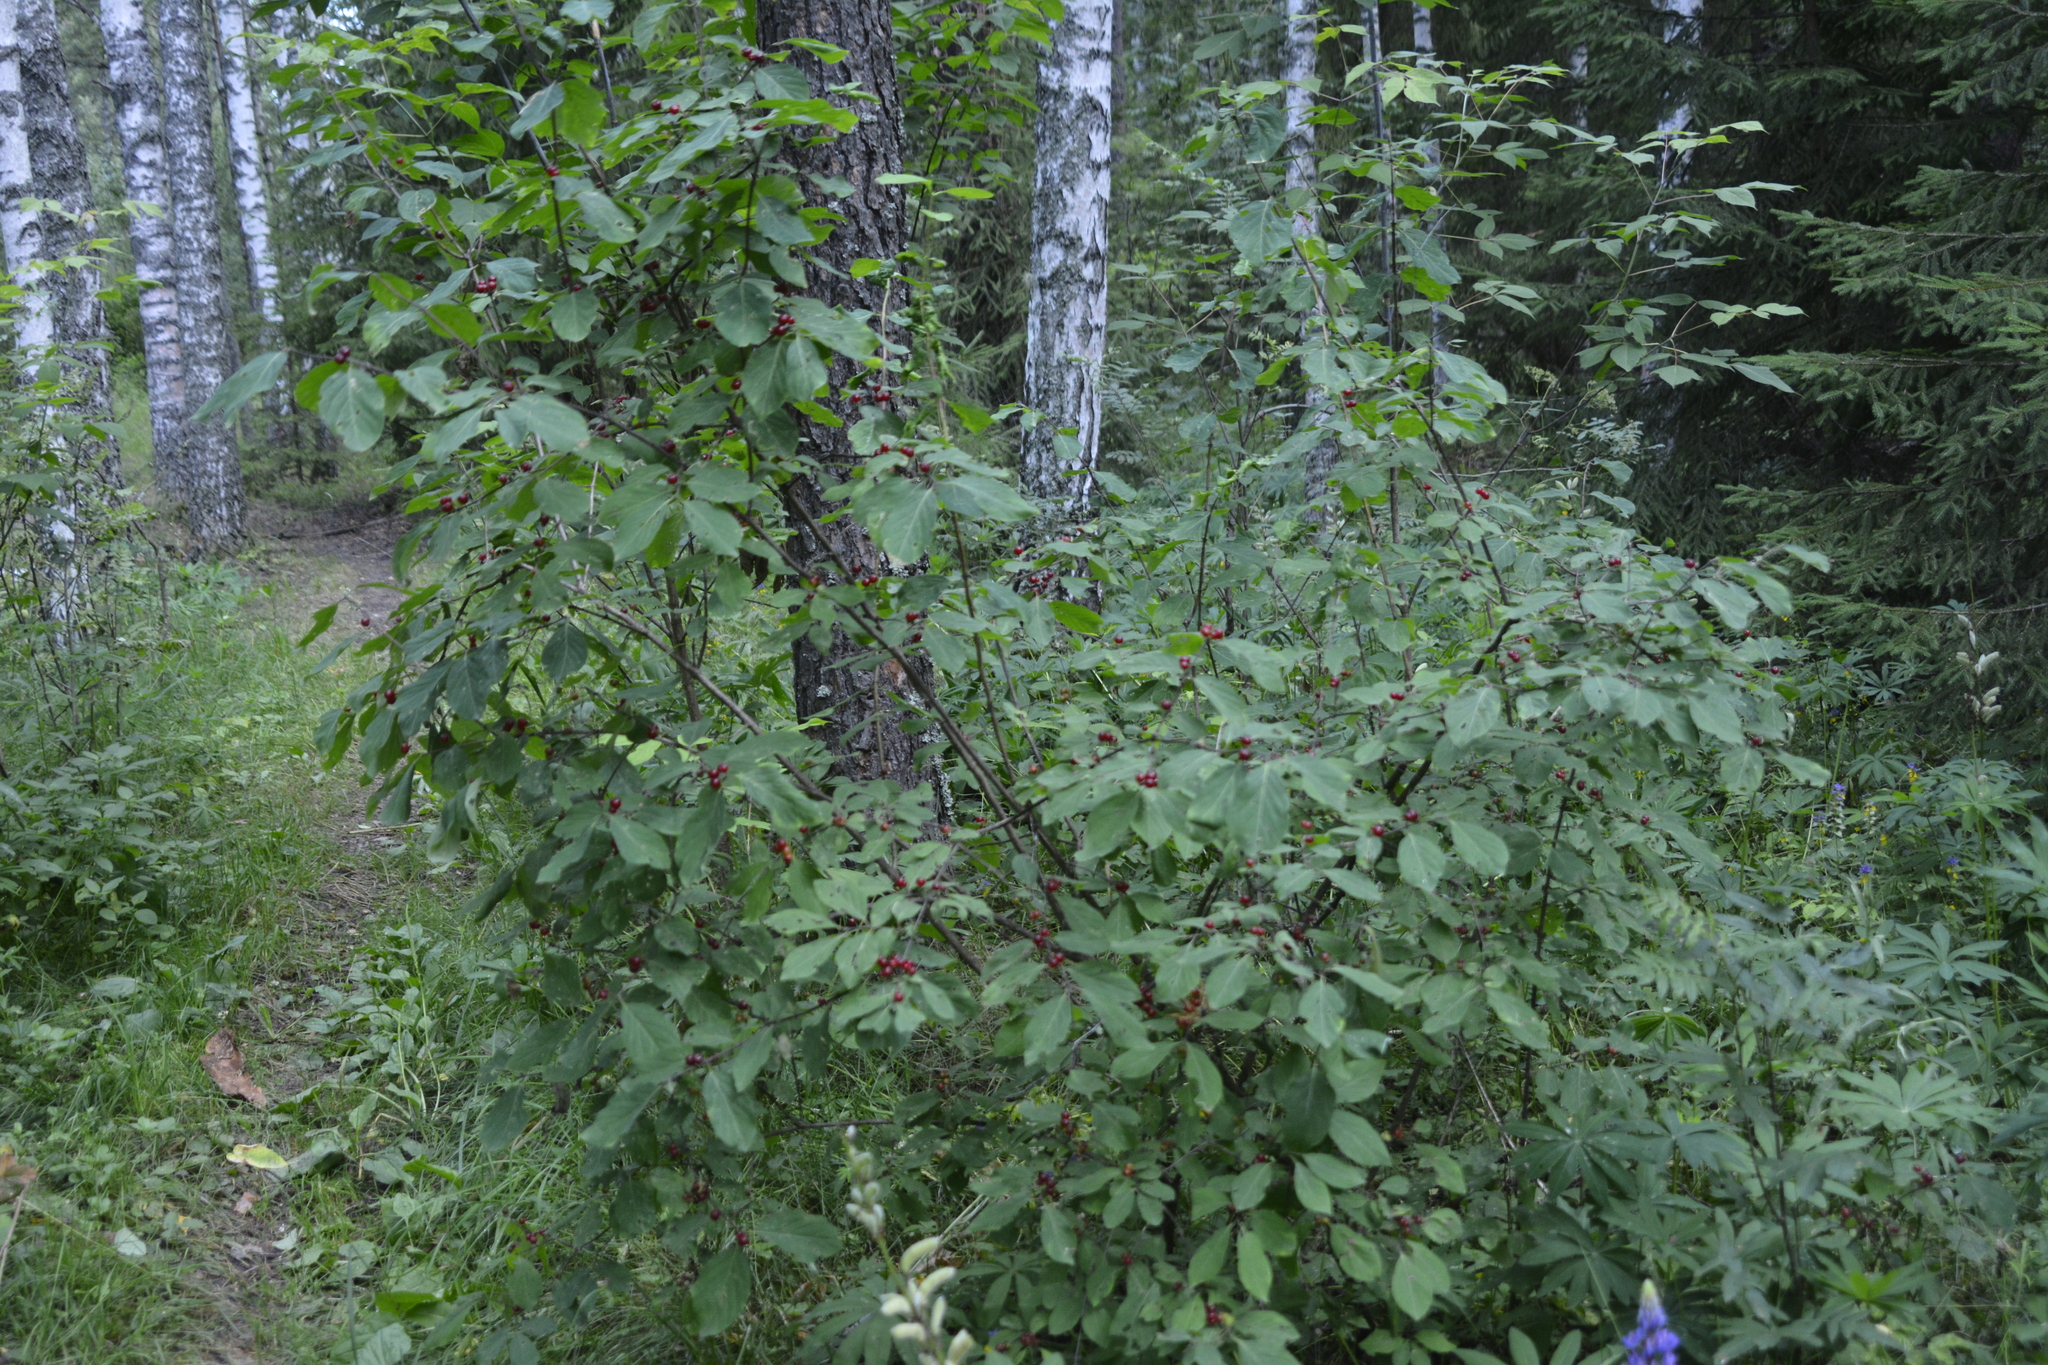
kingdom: Plantae
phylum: Tracheophyta
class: Magnoliopsida
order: Dipsacales
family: Caprifoliaceae
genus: Lonicera
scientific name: Lonicera xylosteum
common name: Fly honeysuckle
